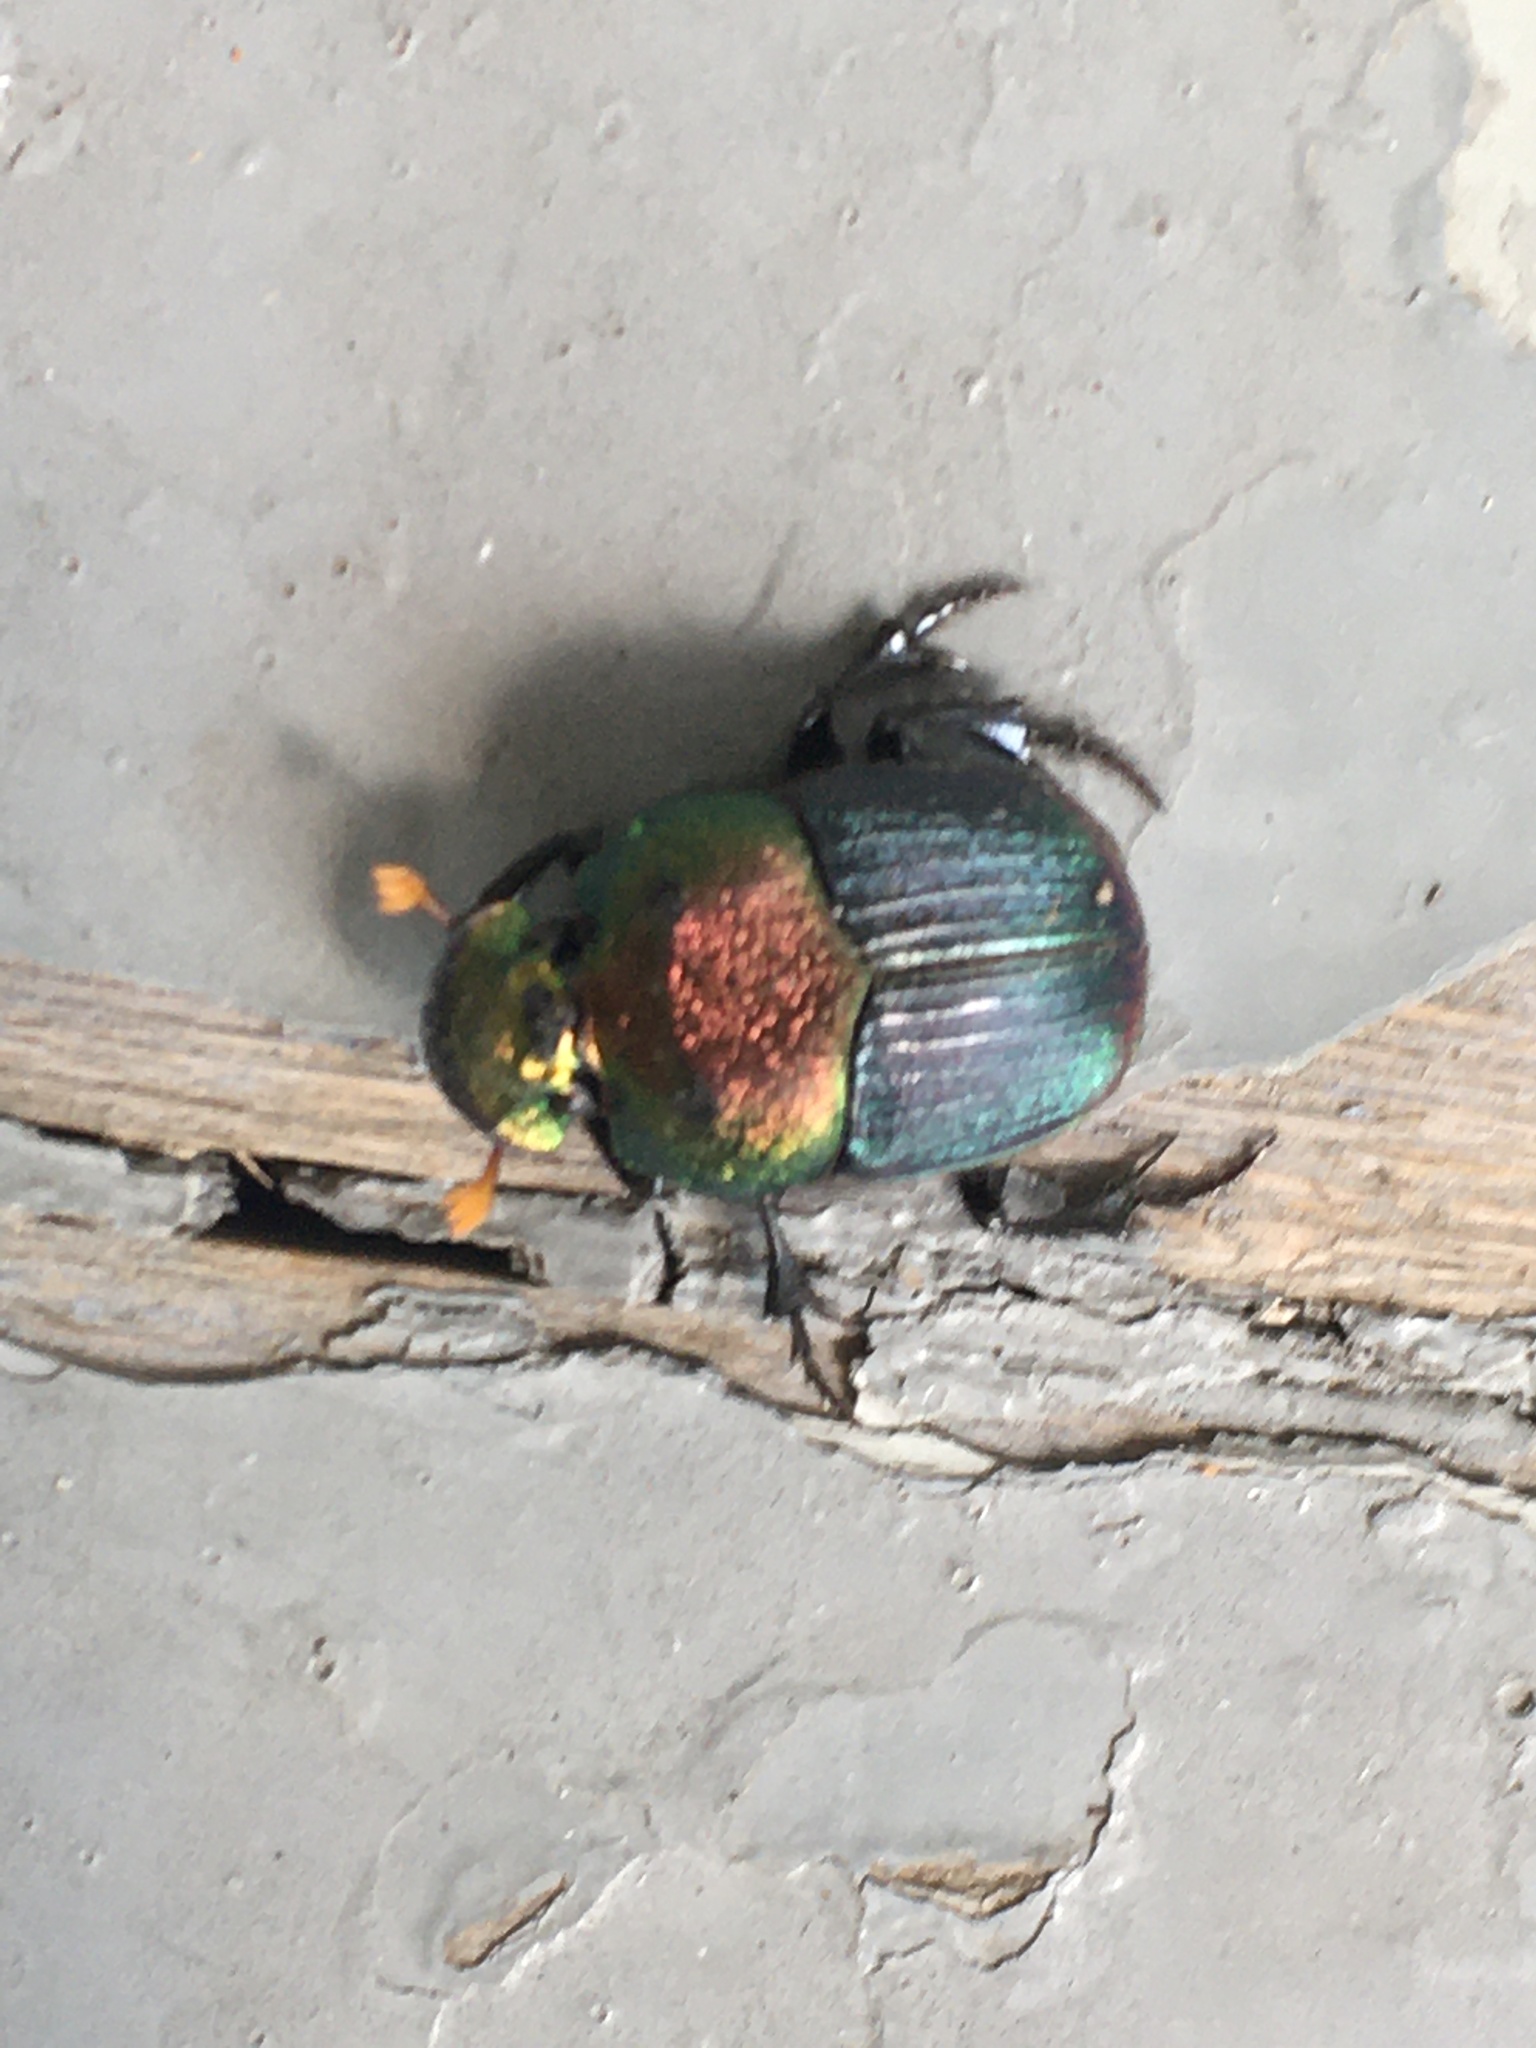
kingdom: Animalia
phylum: Arthropoda
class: Insecta
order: Coleoptera
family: Scarabaeidae
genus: Phanaeus
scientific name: Phanaeus vindex
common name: Rainbow scarab
